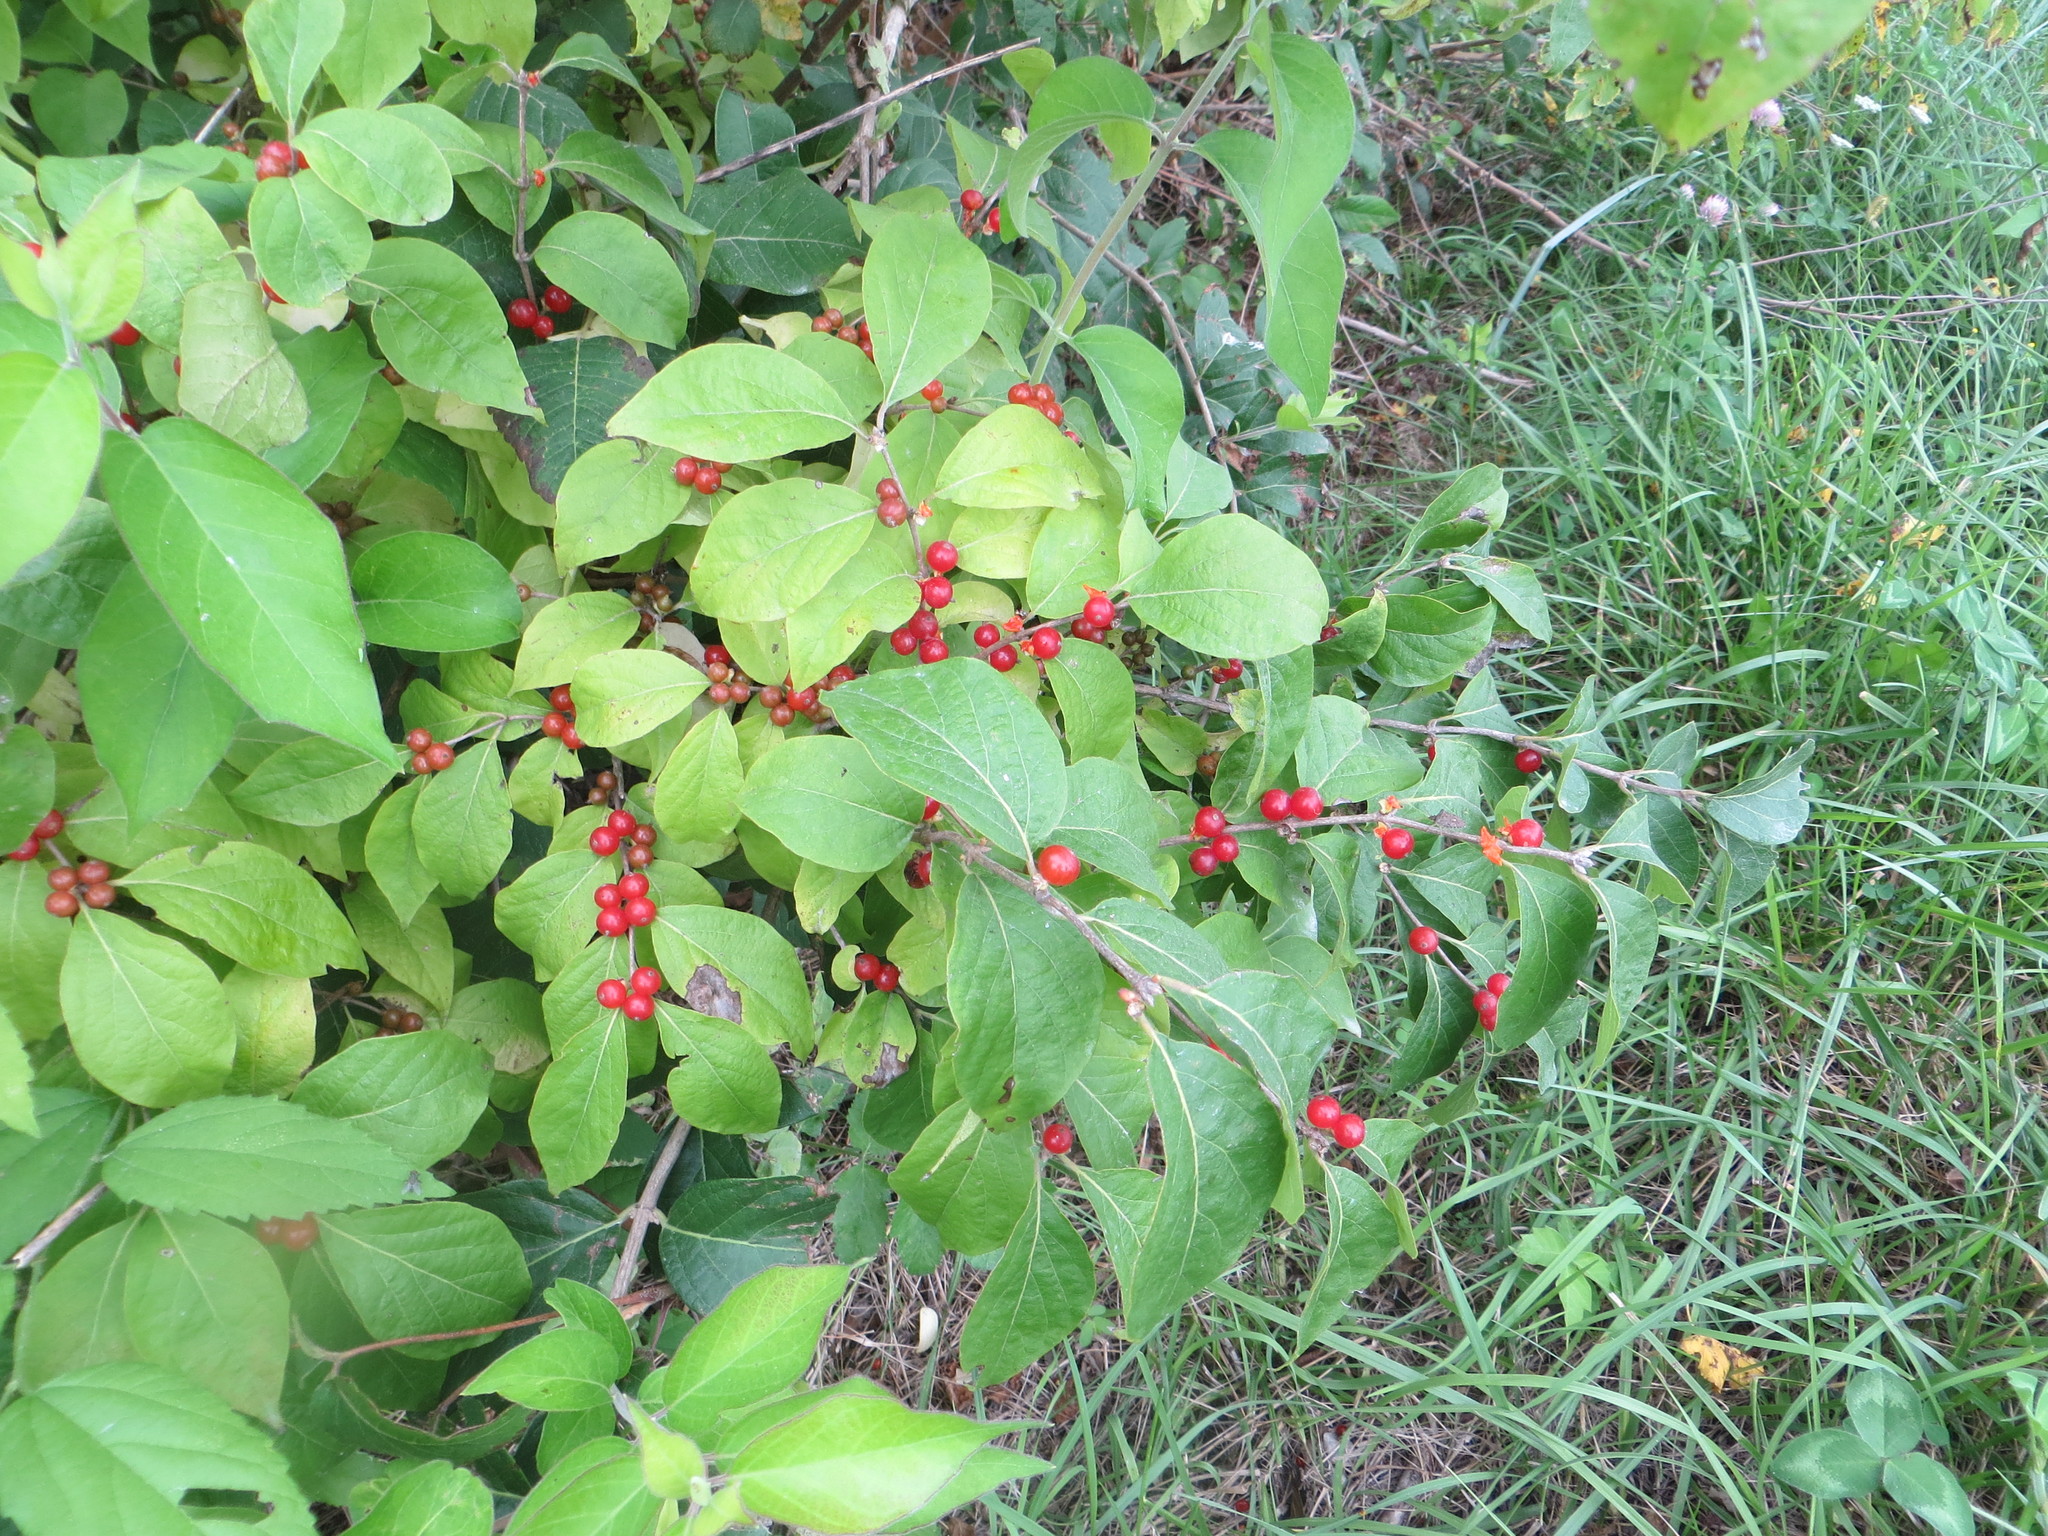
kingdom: Plantae
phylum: Tracheophyta
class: Magnoliopsida
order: Dipsacales
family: Caprifoliaceae
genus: Lonicera
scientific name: Lonicera maackii
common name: Amur honeysuckle
